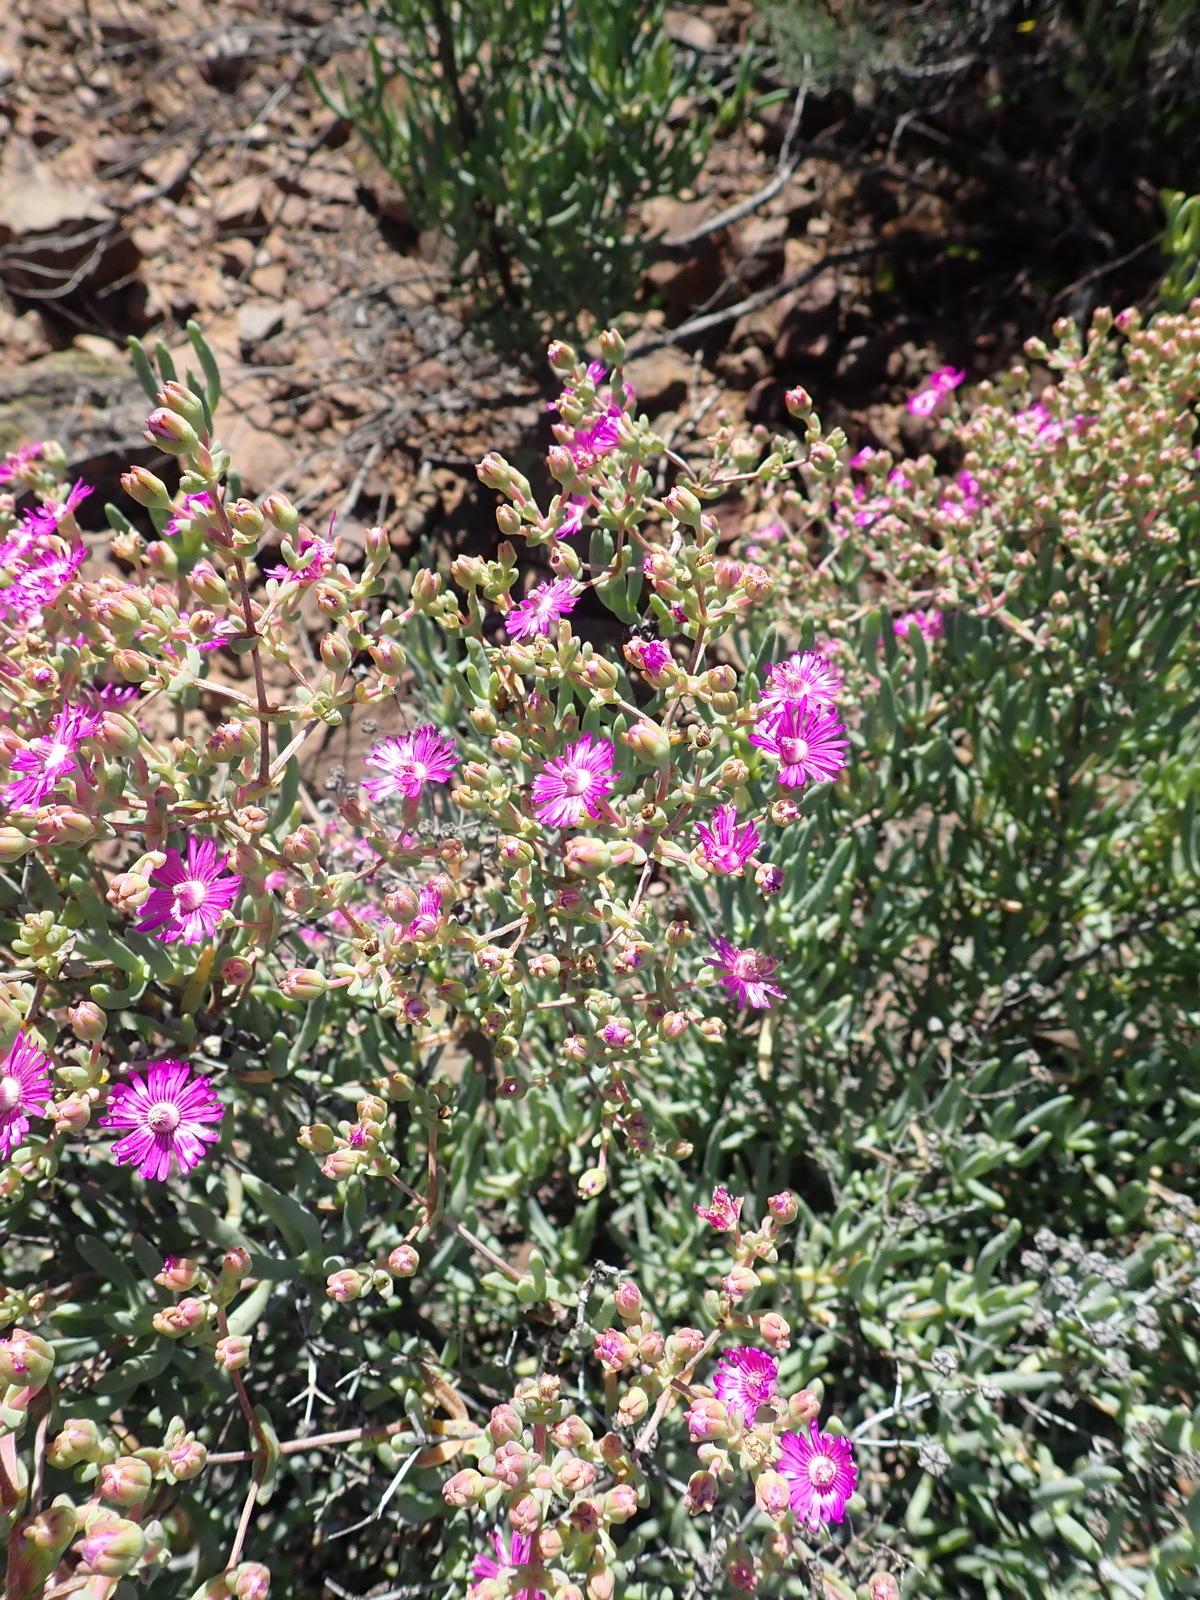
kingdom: Plantae
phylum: Tracheophyta
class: Magnoliopsida
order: Caryophyllales
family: Aizoaceae
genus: Ruschia
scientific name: Ruschia pungens
